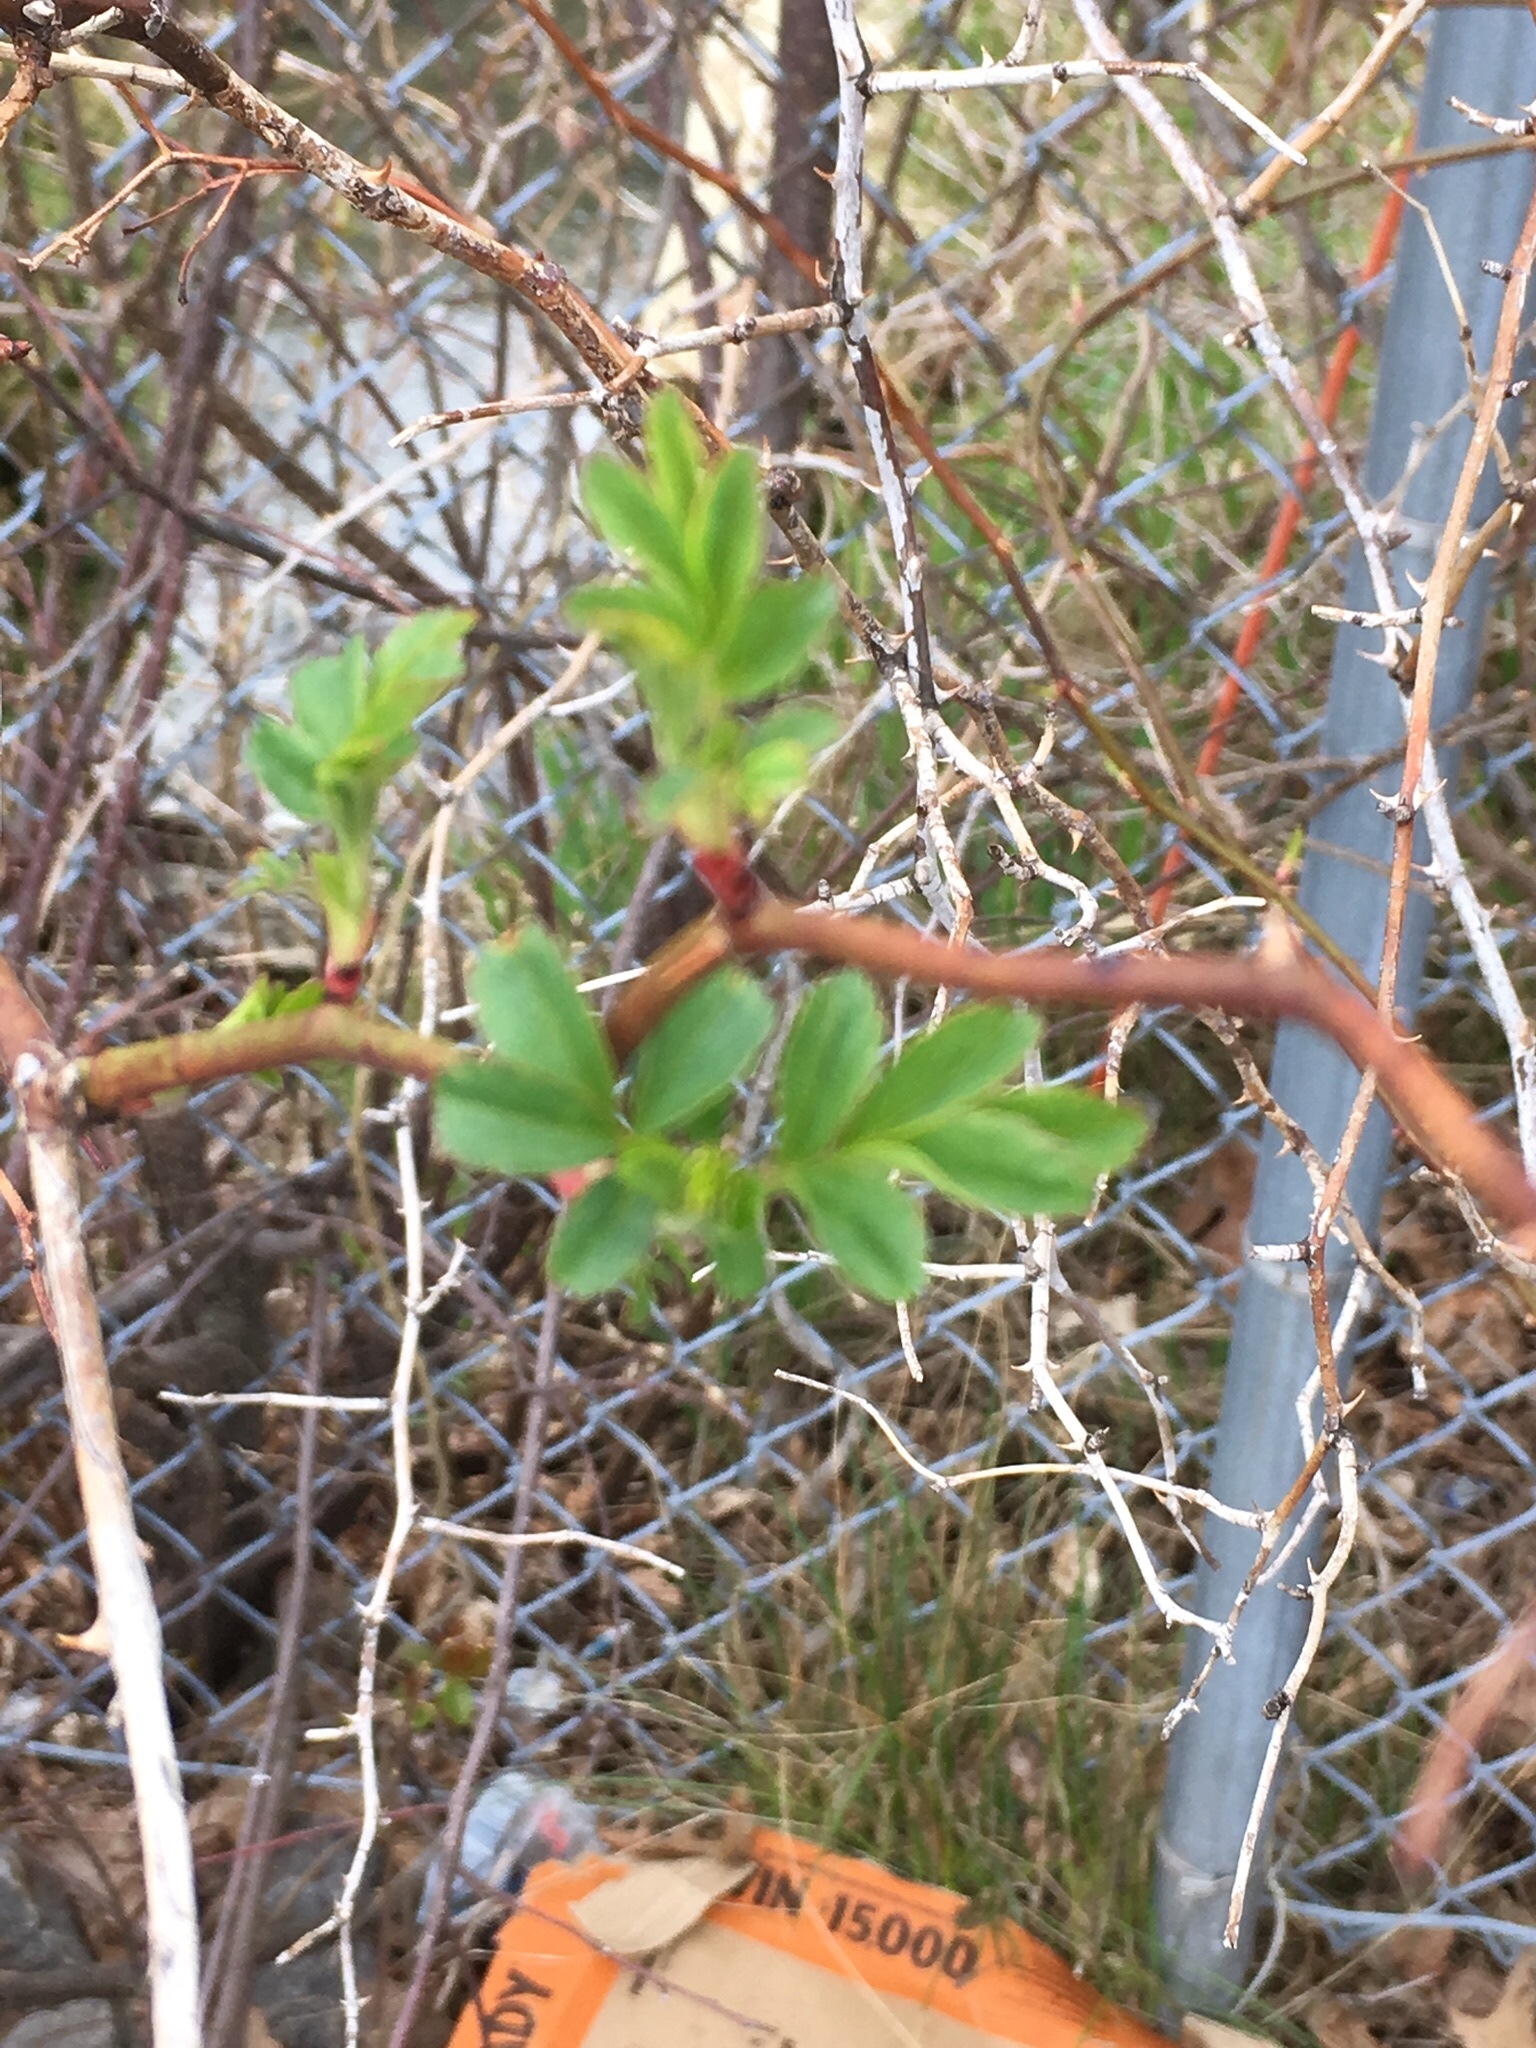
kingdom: Plantae
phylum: Tracheophyta
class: Magnoliopsida
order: Rosales
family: Rosaceae
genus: Rosa
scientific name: Rosa multiflora
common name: Multiflora rose
